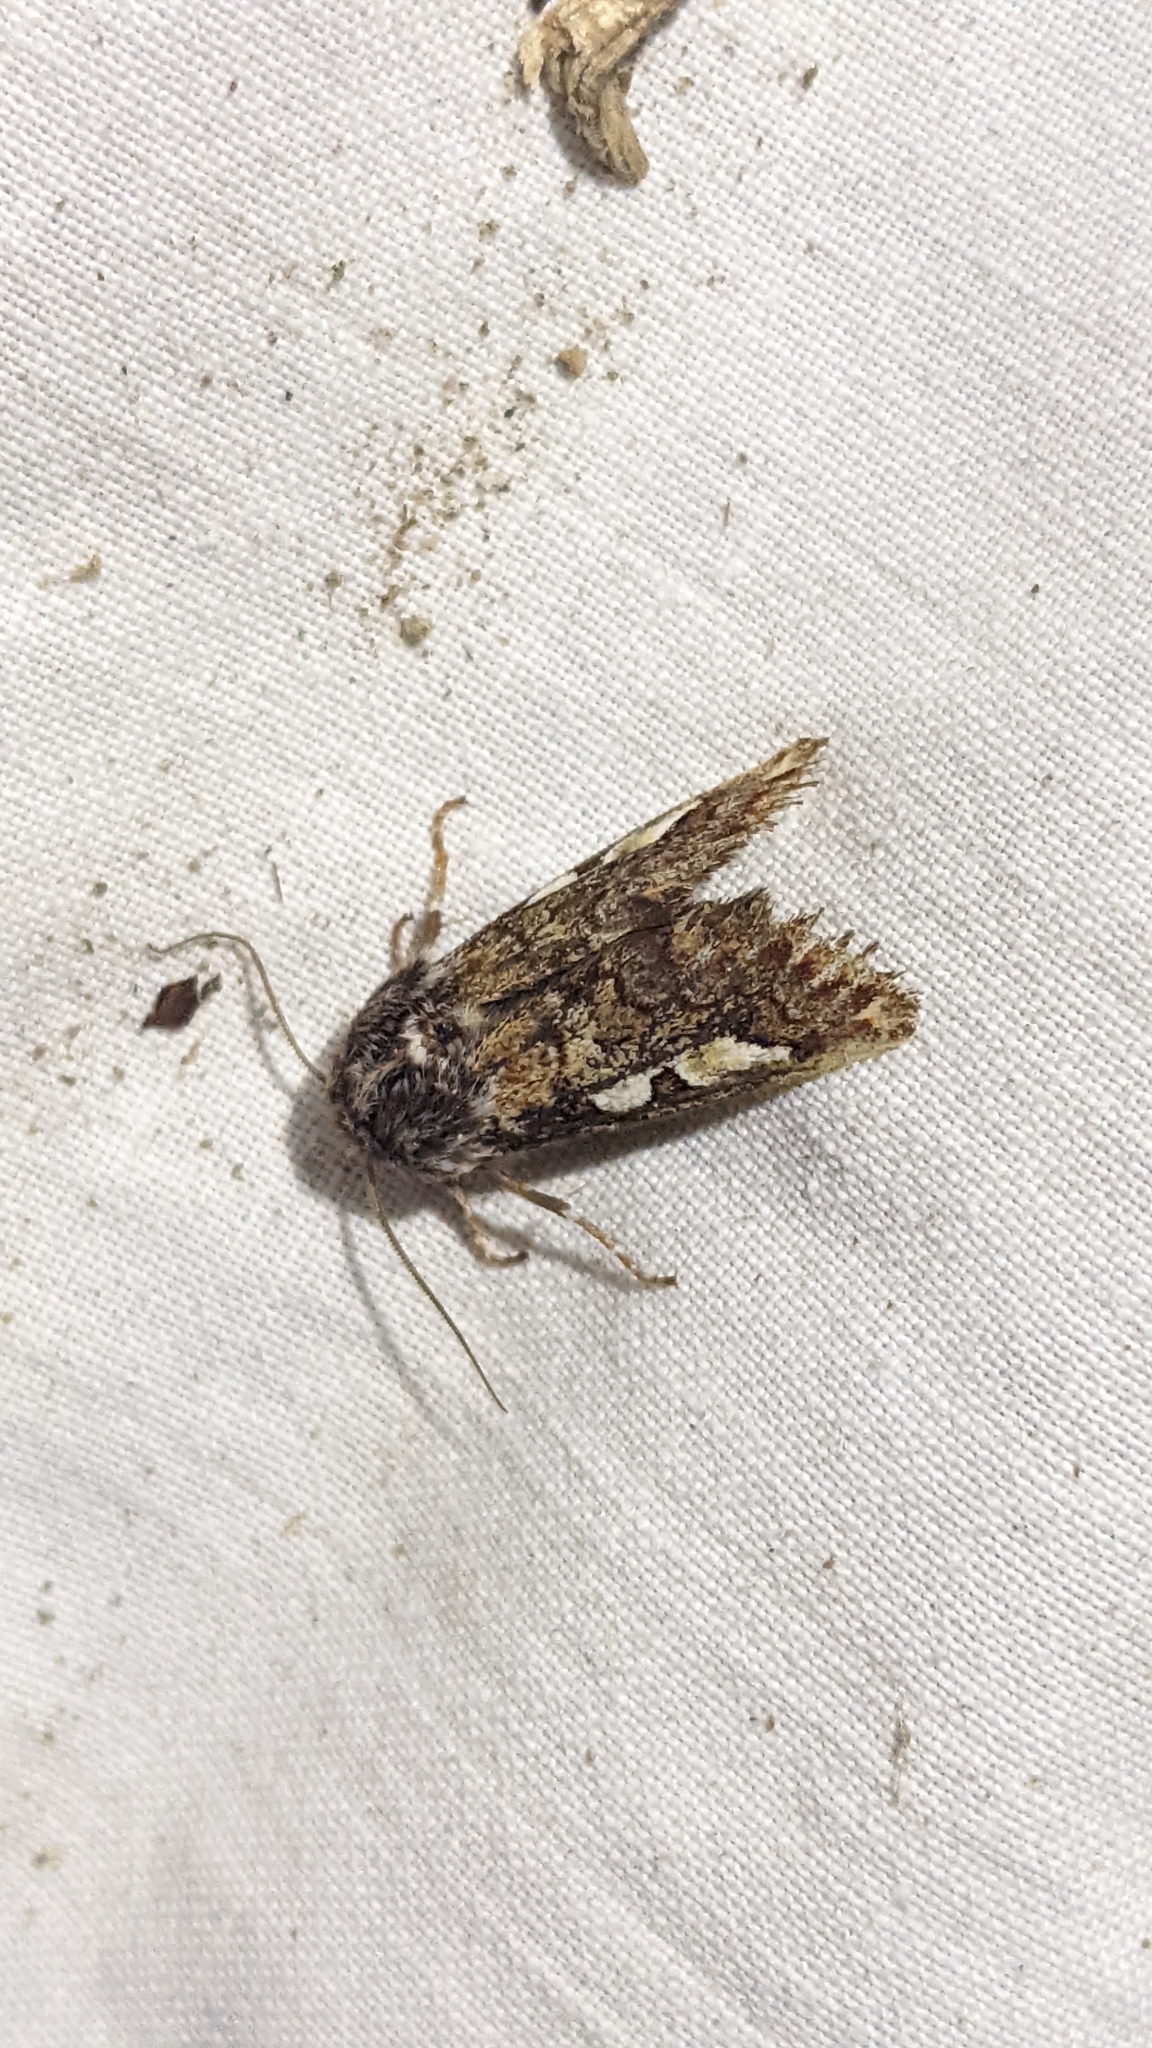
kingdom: Animalia
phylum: Arthropoda
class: Insecta
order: Lepidoptera
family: Noctuidae
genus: Panolis
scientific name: Panolis flammea
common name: Pine beauty
